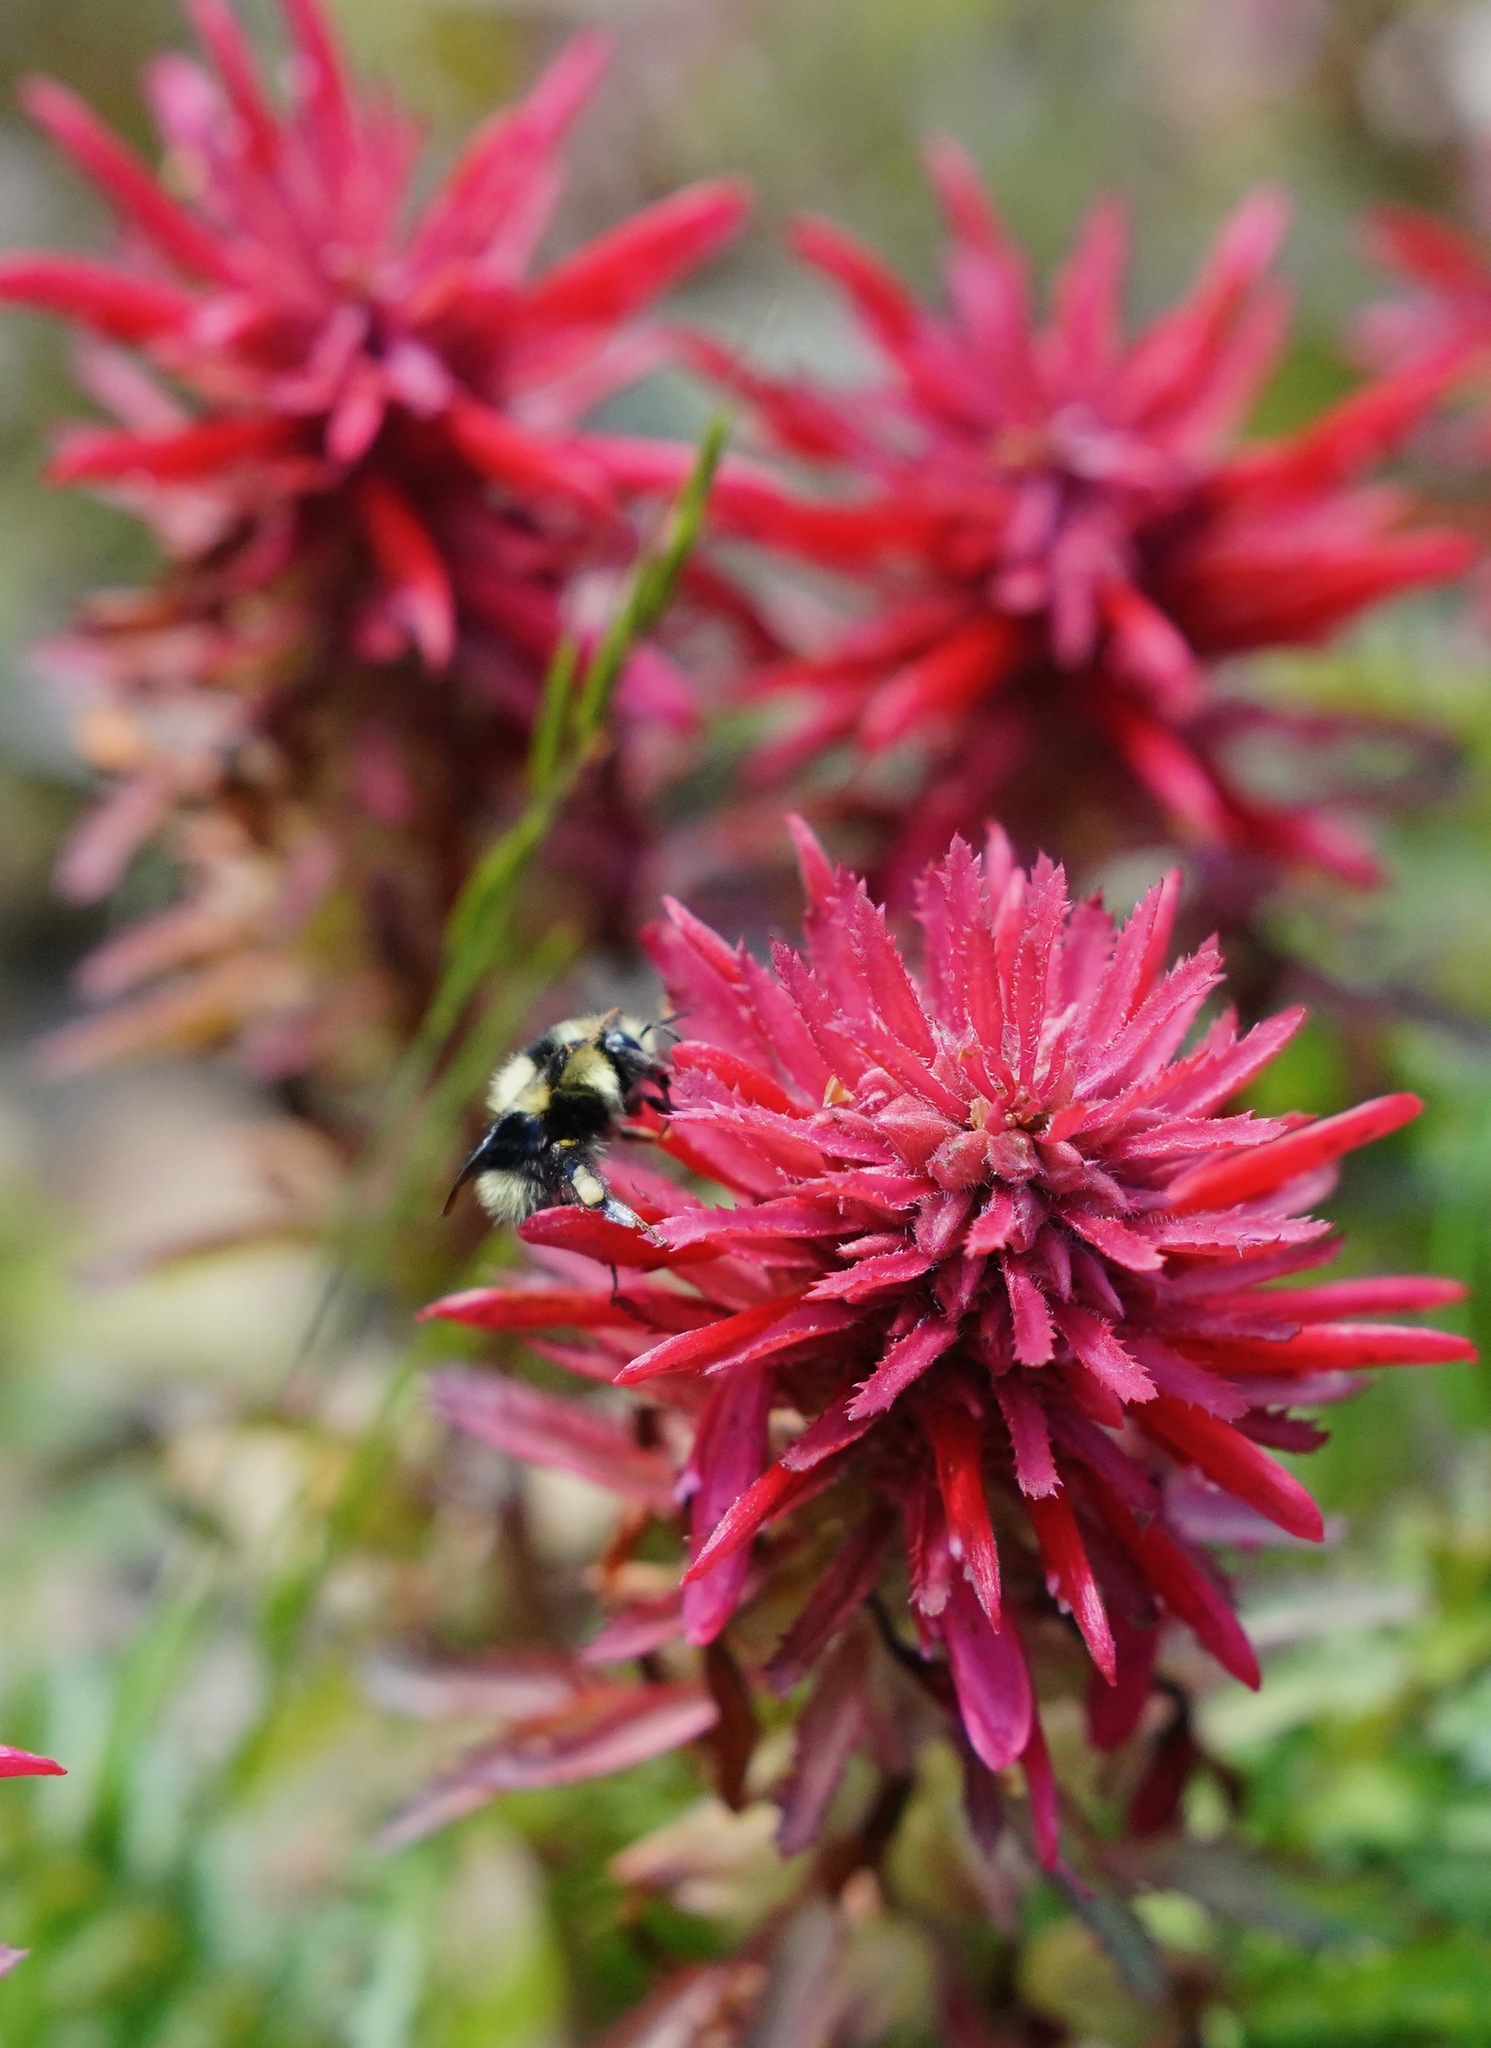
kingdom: Animalia
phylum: Arthropoda
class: Insecta
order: Hymenoptera
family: Apidae
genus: Bombus
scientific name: Bombus melanopygus
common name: Black tail bumble bee
